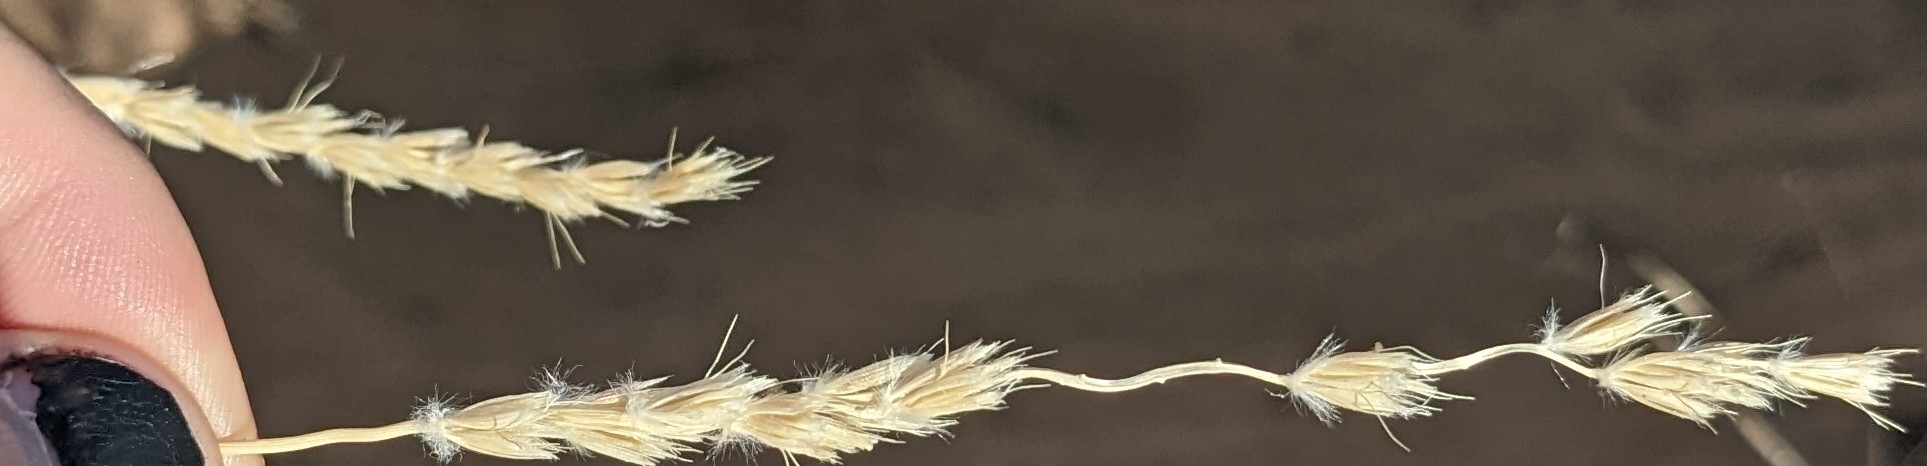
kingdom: Plantae
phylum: Tracheophyta
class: Liliopsida
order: Poales
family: Poaceae
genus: Hilaria
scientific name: Hilaria rigida
